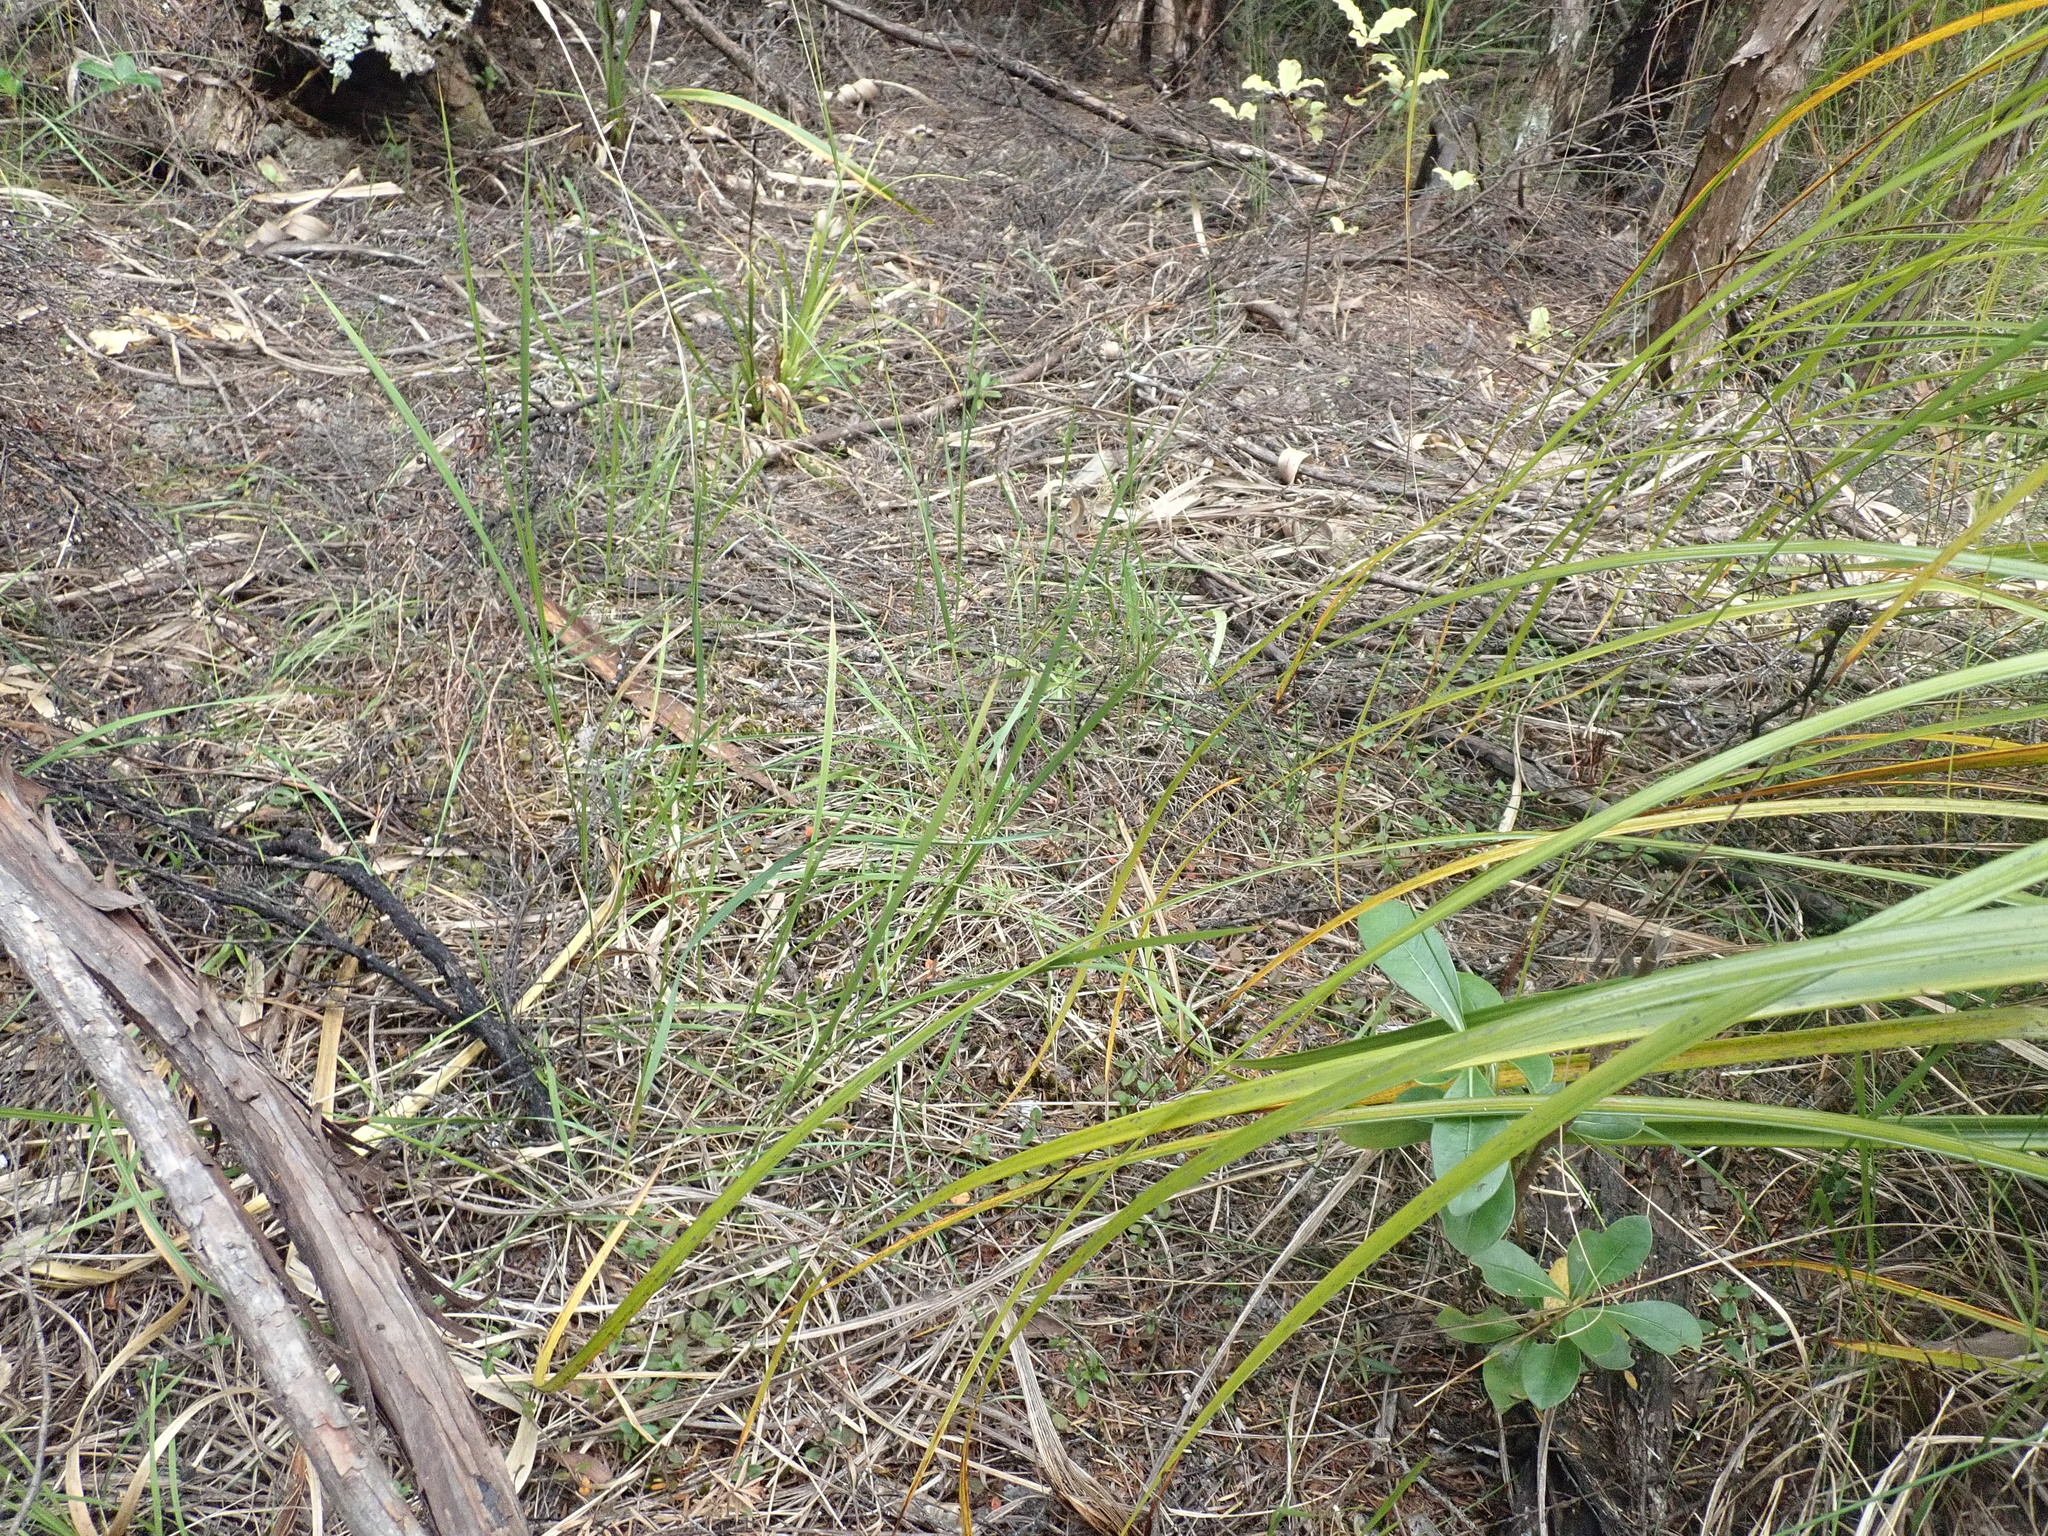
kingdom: Plantae
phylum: Tracheophyta
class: Magnoliopsida
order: Gentianales
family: Rubiaceae
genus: Coprosma
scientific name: Coprosma lucida
